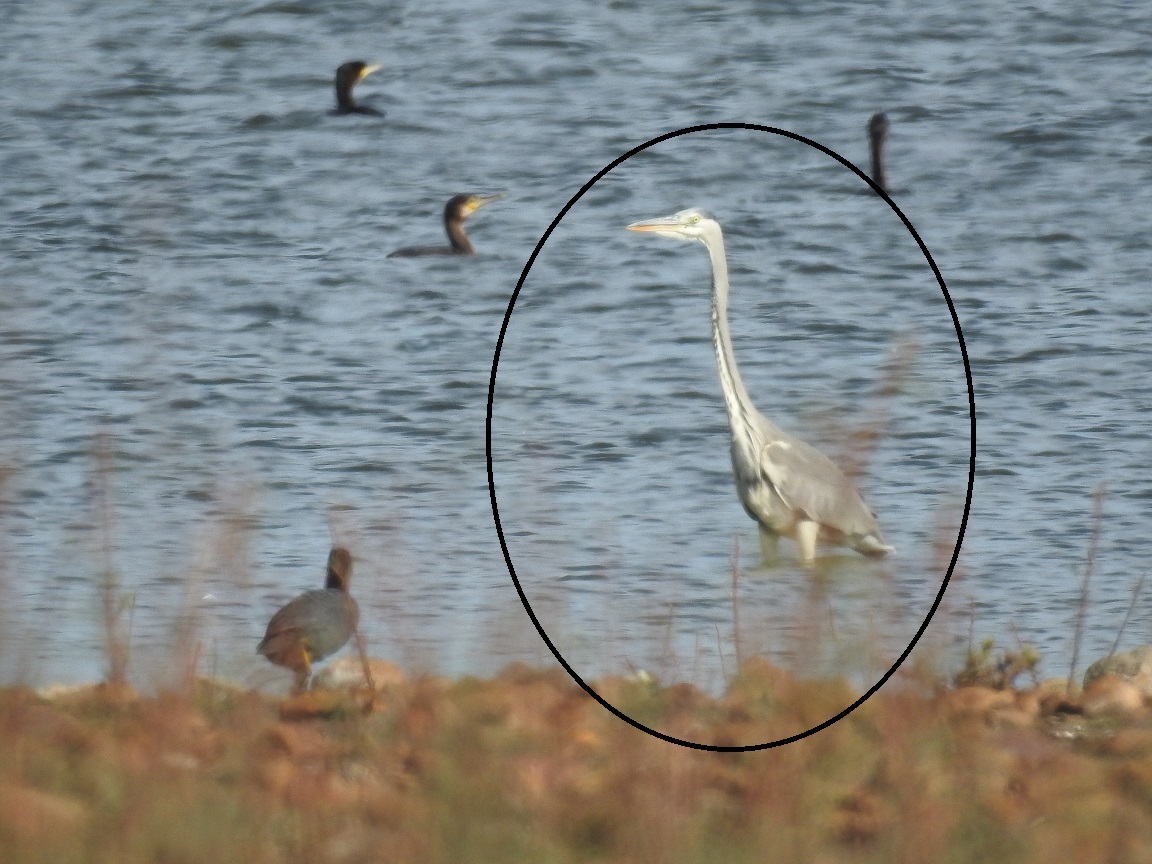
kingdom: Animalia
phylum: Chordata
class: Aves
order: Pelecaniformes
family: Ardeidae
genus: Ardea
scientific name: Ardea cinerea
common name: Grey heron
